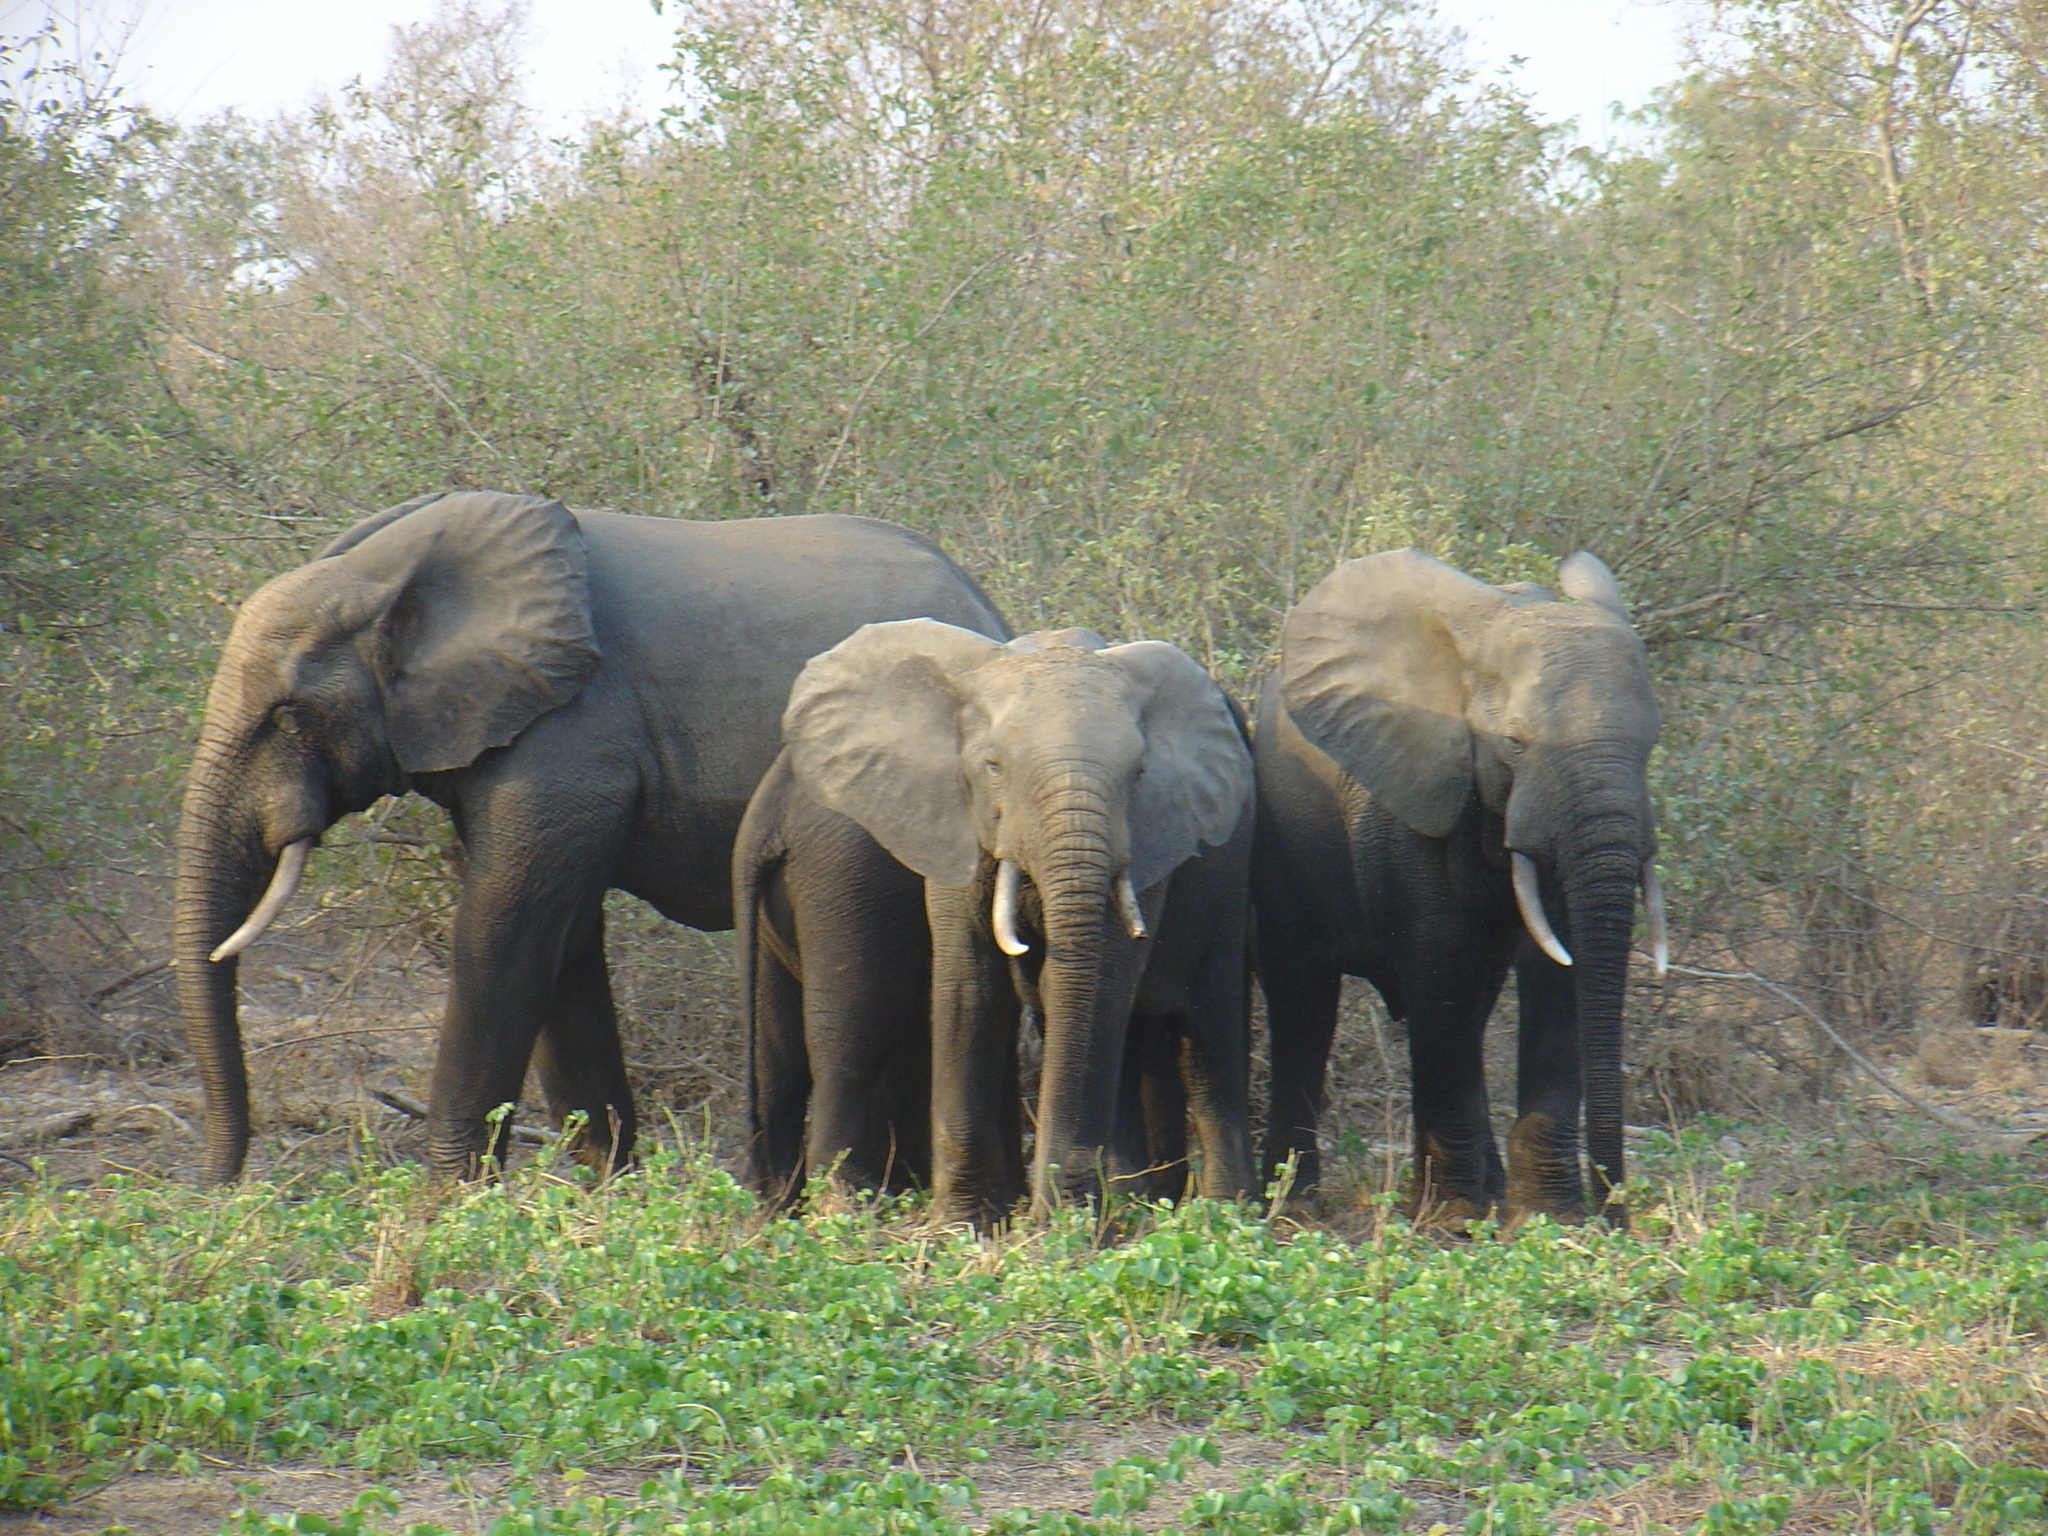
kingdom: Animalia
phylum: Chordata
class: Mammalia
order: Proboscidea
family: Elephantidae
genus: Loxodonta
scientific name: Loxodonta cyclotis
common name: African forest elephant
